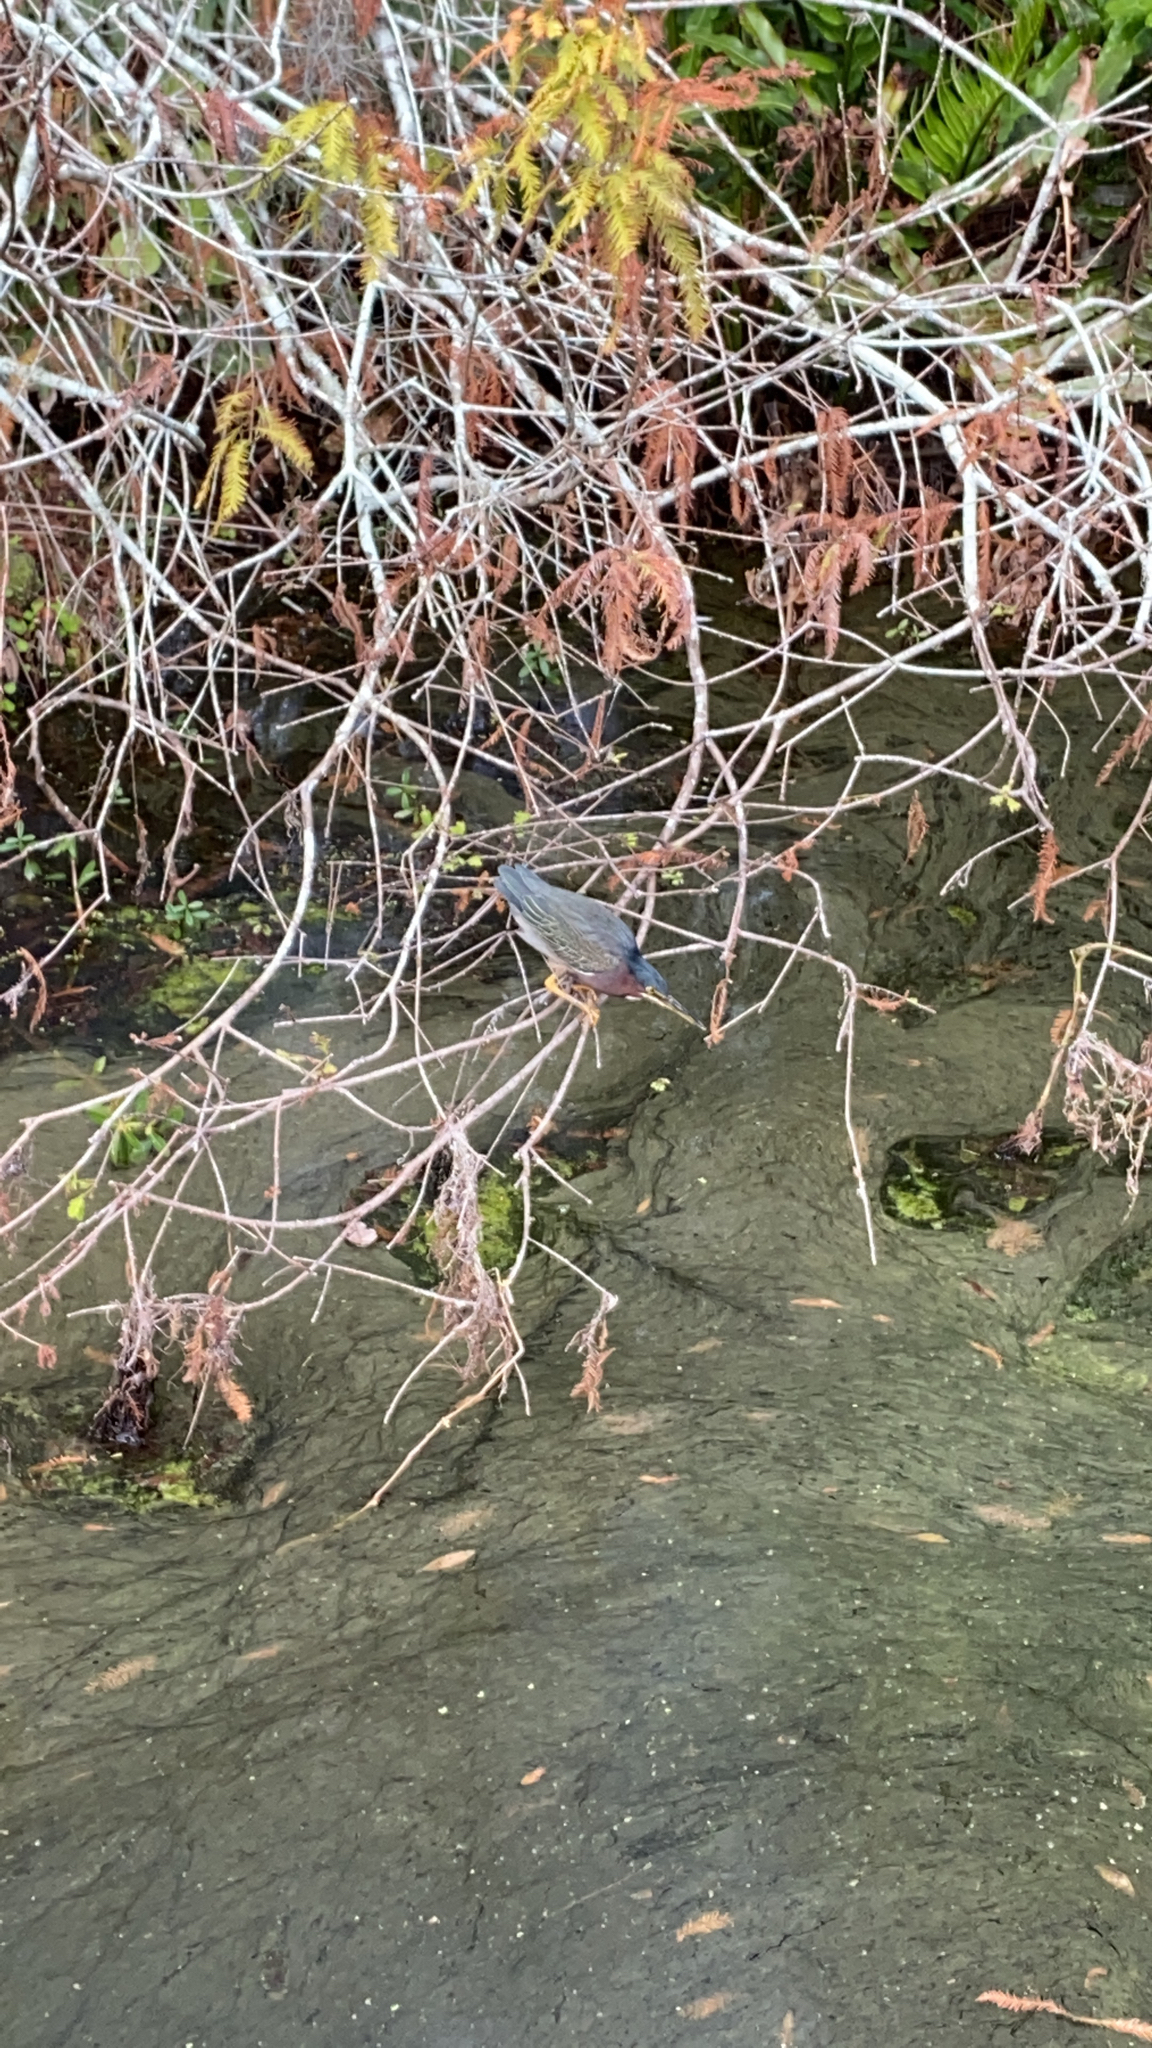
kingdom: Animalia
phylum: Chordata
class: Aves
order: Pelecaniformes
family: Ardeidae
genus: Butorides
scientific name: Butorides virescens
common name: Green heron
